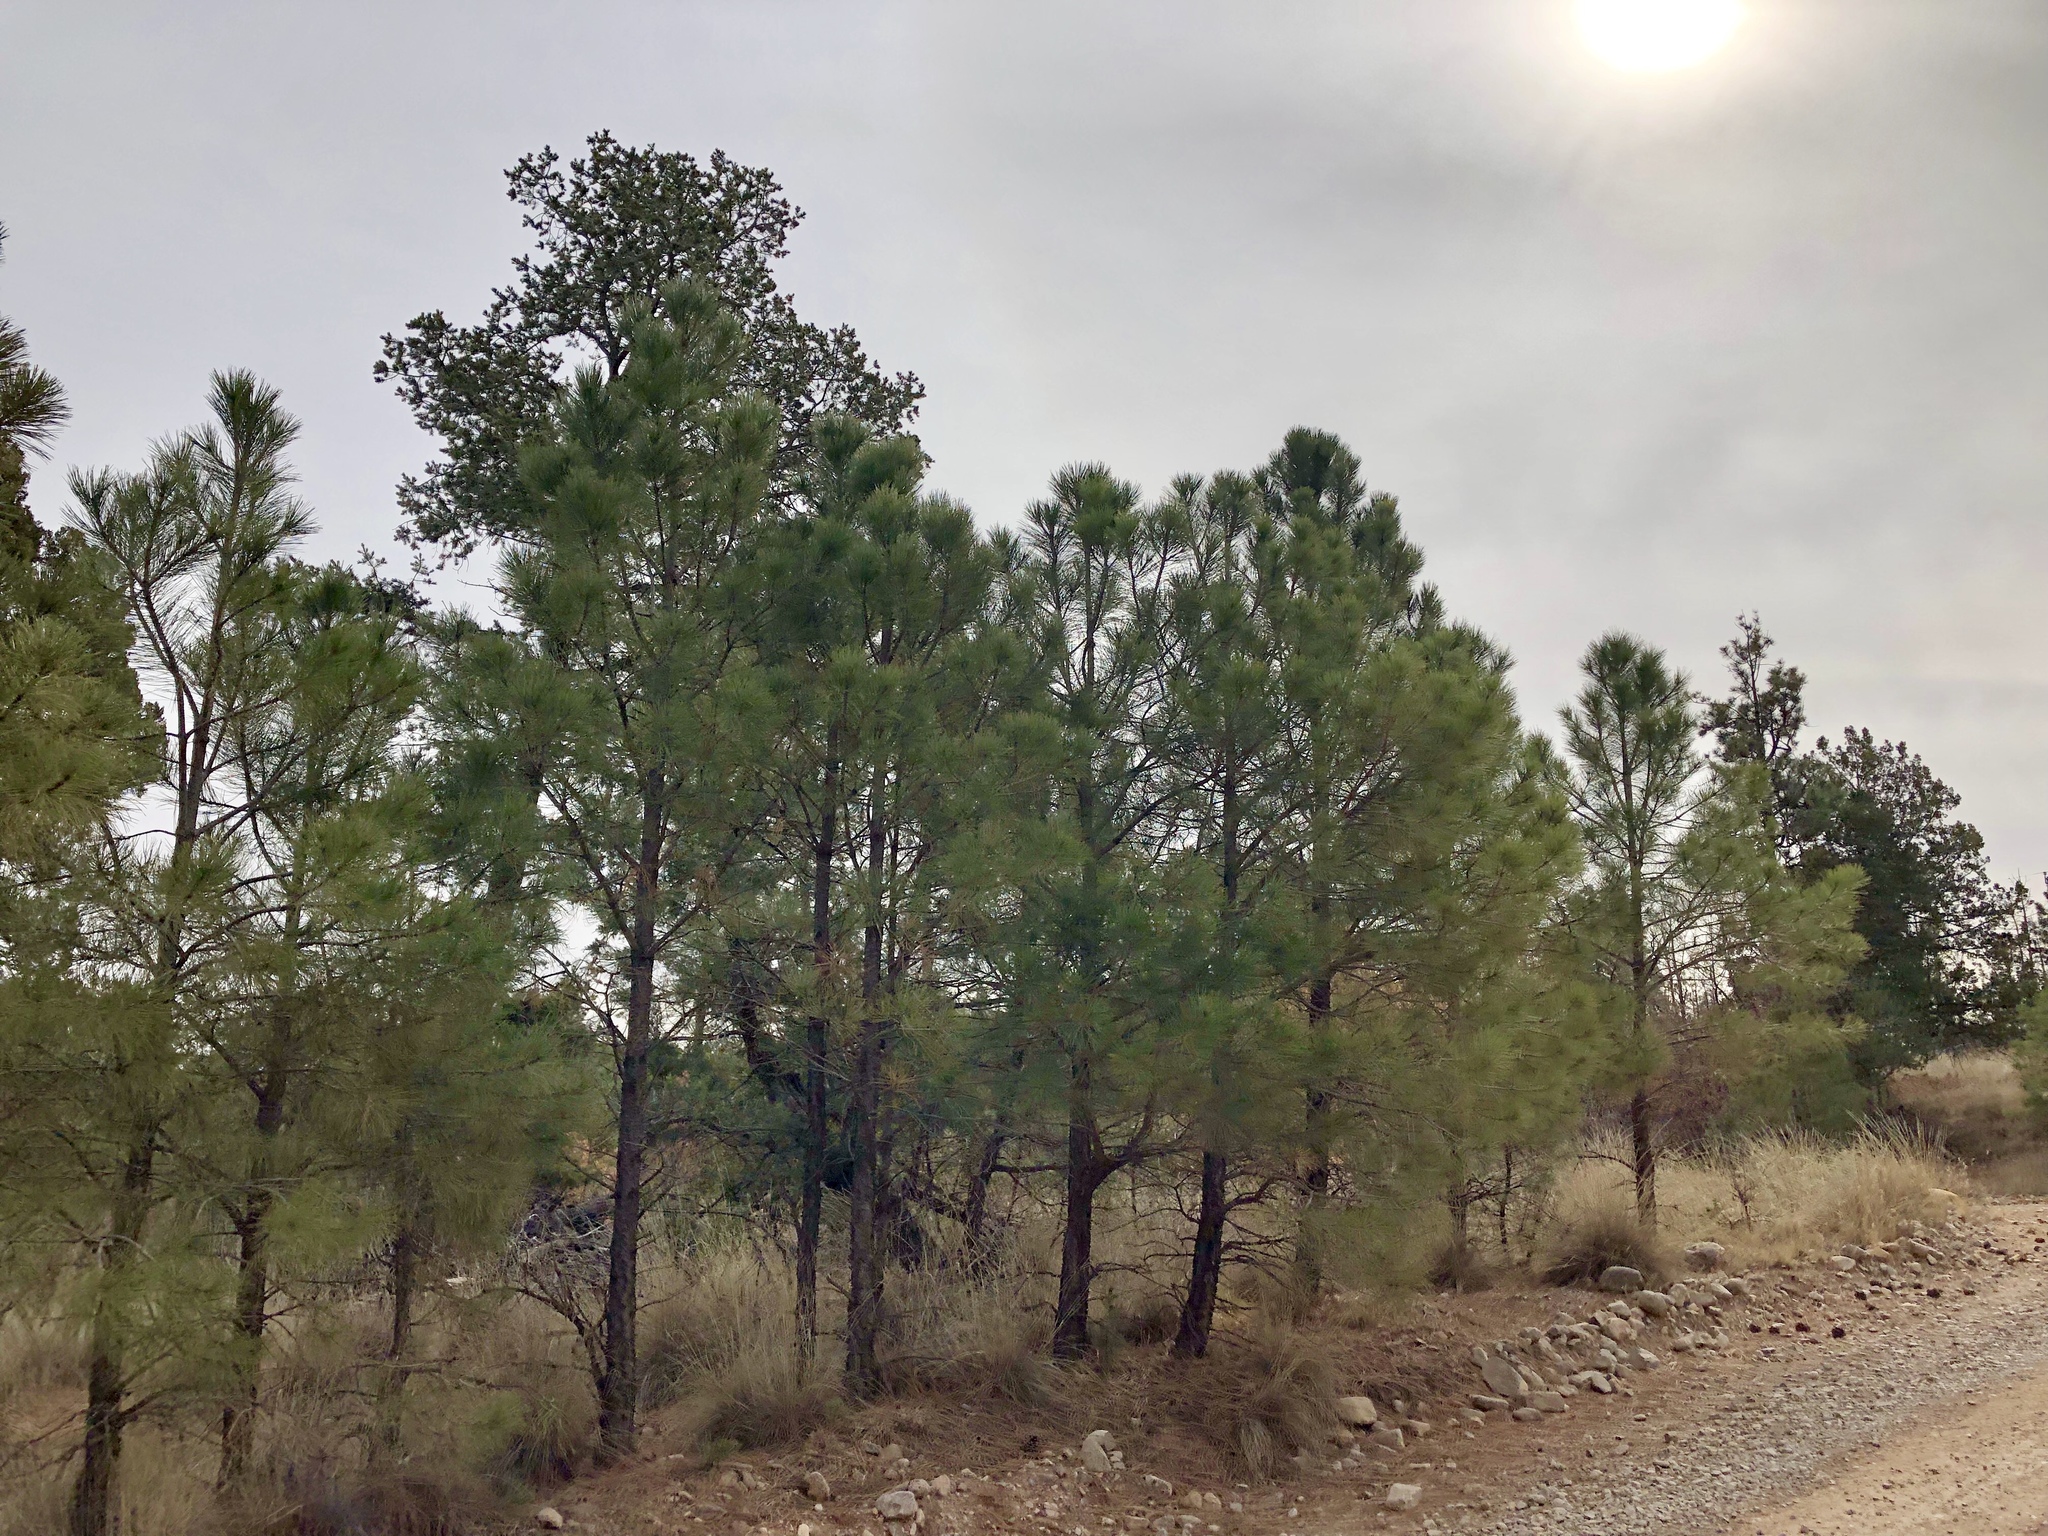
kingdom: Plantae
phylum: Tracheophyta
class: Pinopsida
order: Pinales
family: Pinaceae
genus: Pinus
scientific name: Pinus ponderosa
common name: Western yellow-pine
